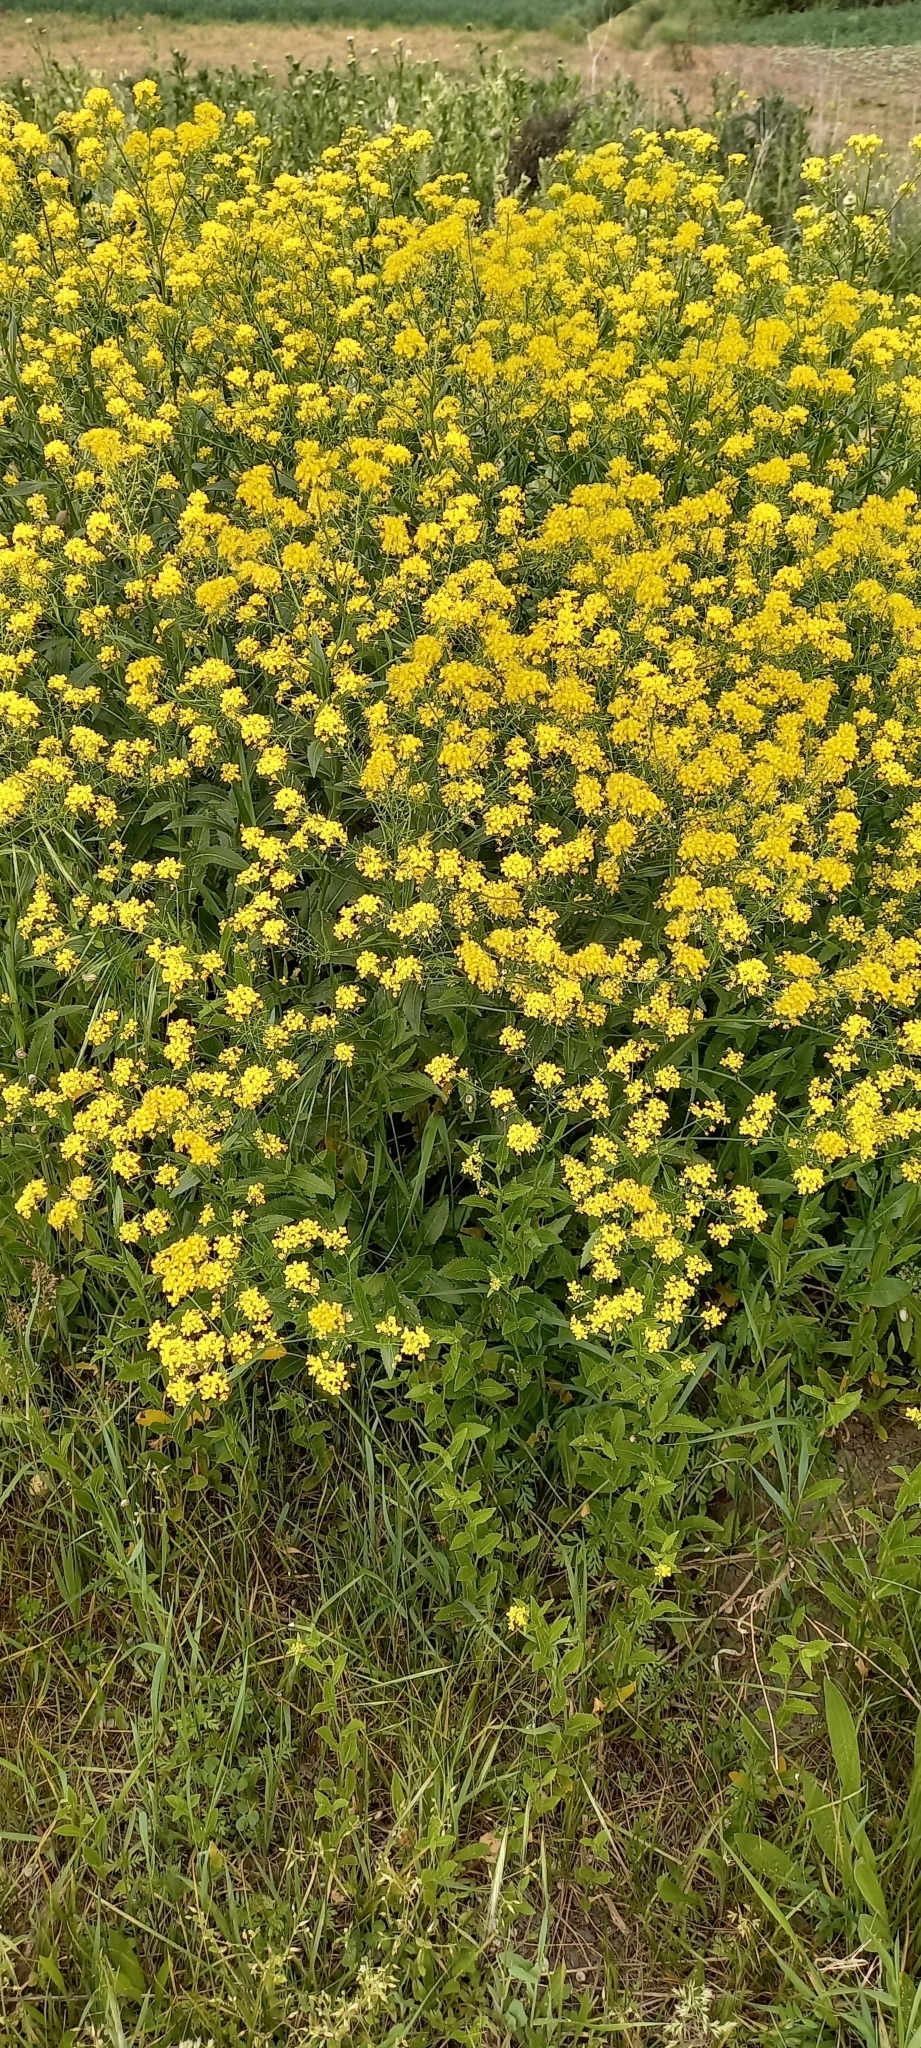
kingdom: Plantae
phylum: Tracheophyta
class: Magnoliopsida
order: Brassicales
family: Brassicaceae
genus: Rorippa
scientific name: Rorippa austriaca
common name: Austrian yellow-cress
